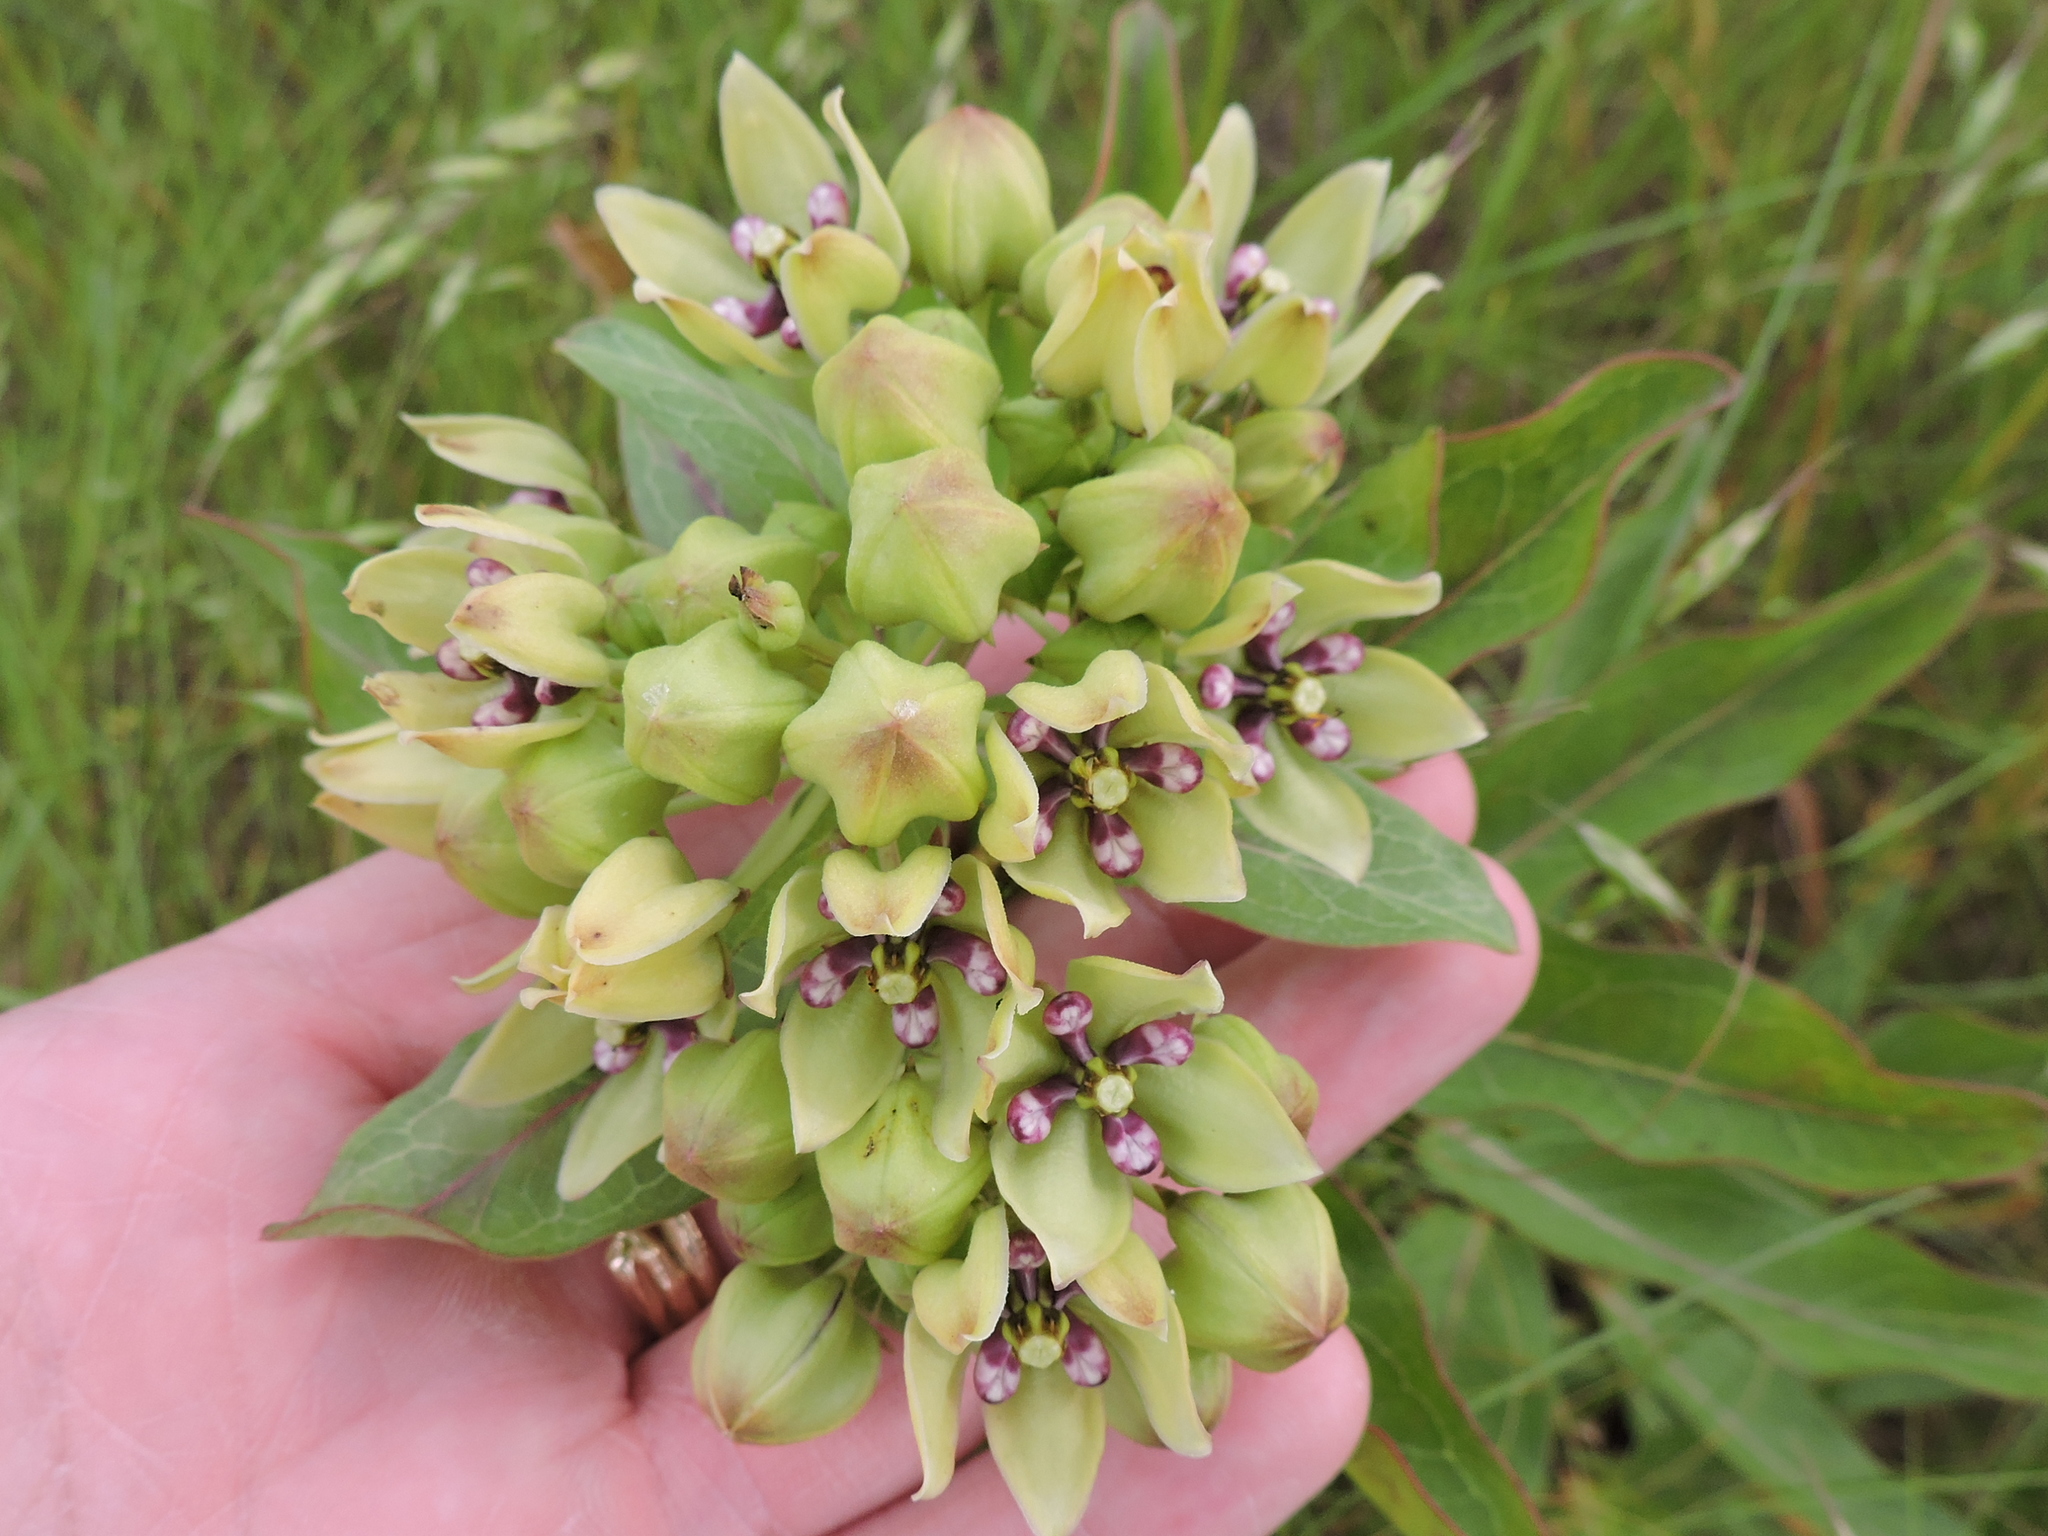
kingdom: Plantae
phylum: Tracheophyta
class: Magnoliopsida
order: Gentianales
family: Apocynaceae
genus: Asclepias
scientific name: Asclepias viridis
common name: Antelope-horns
